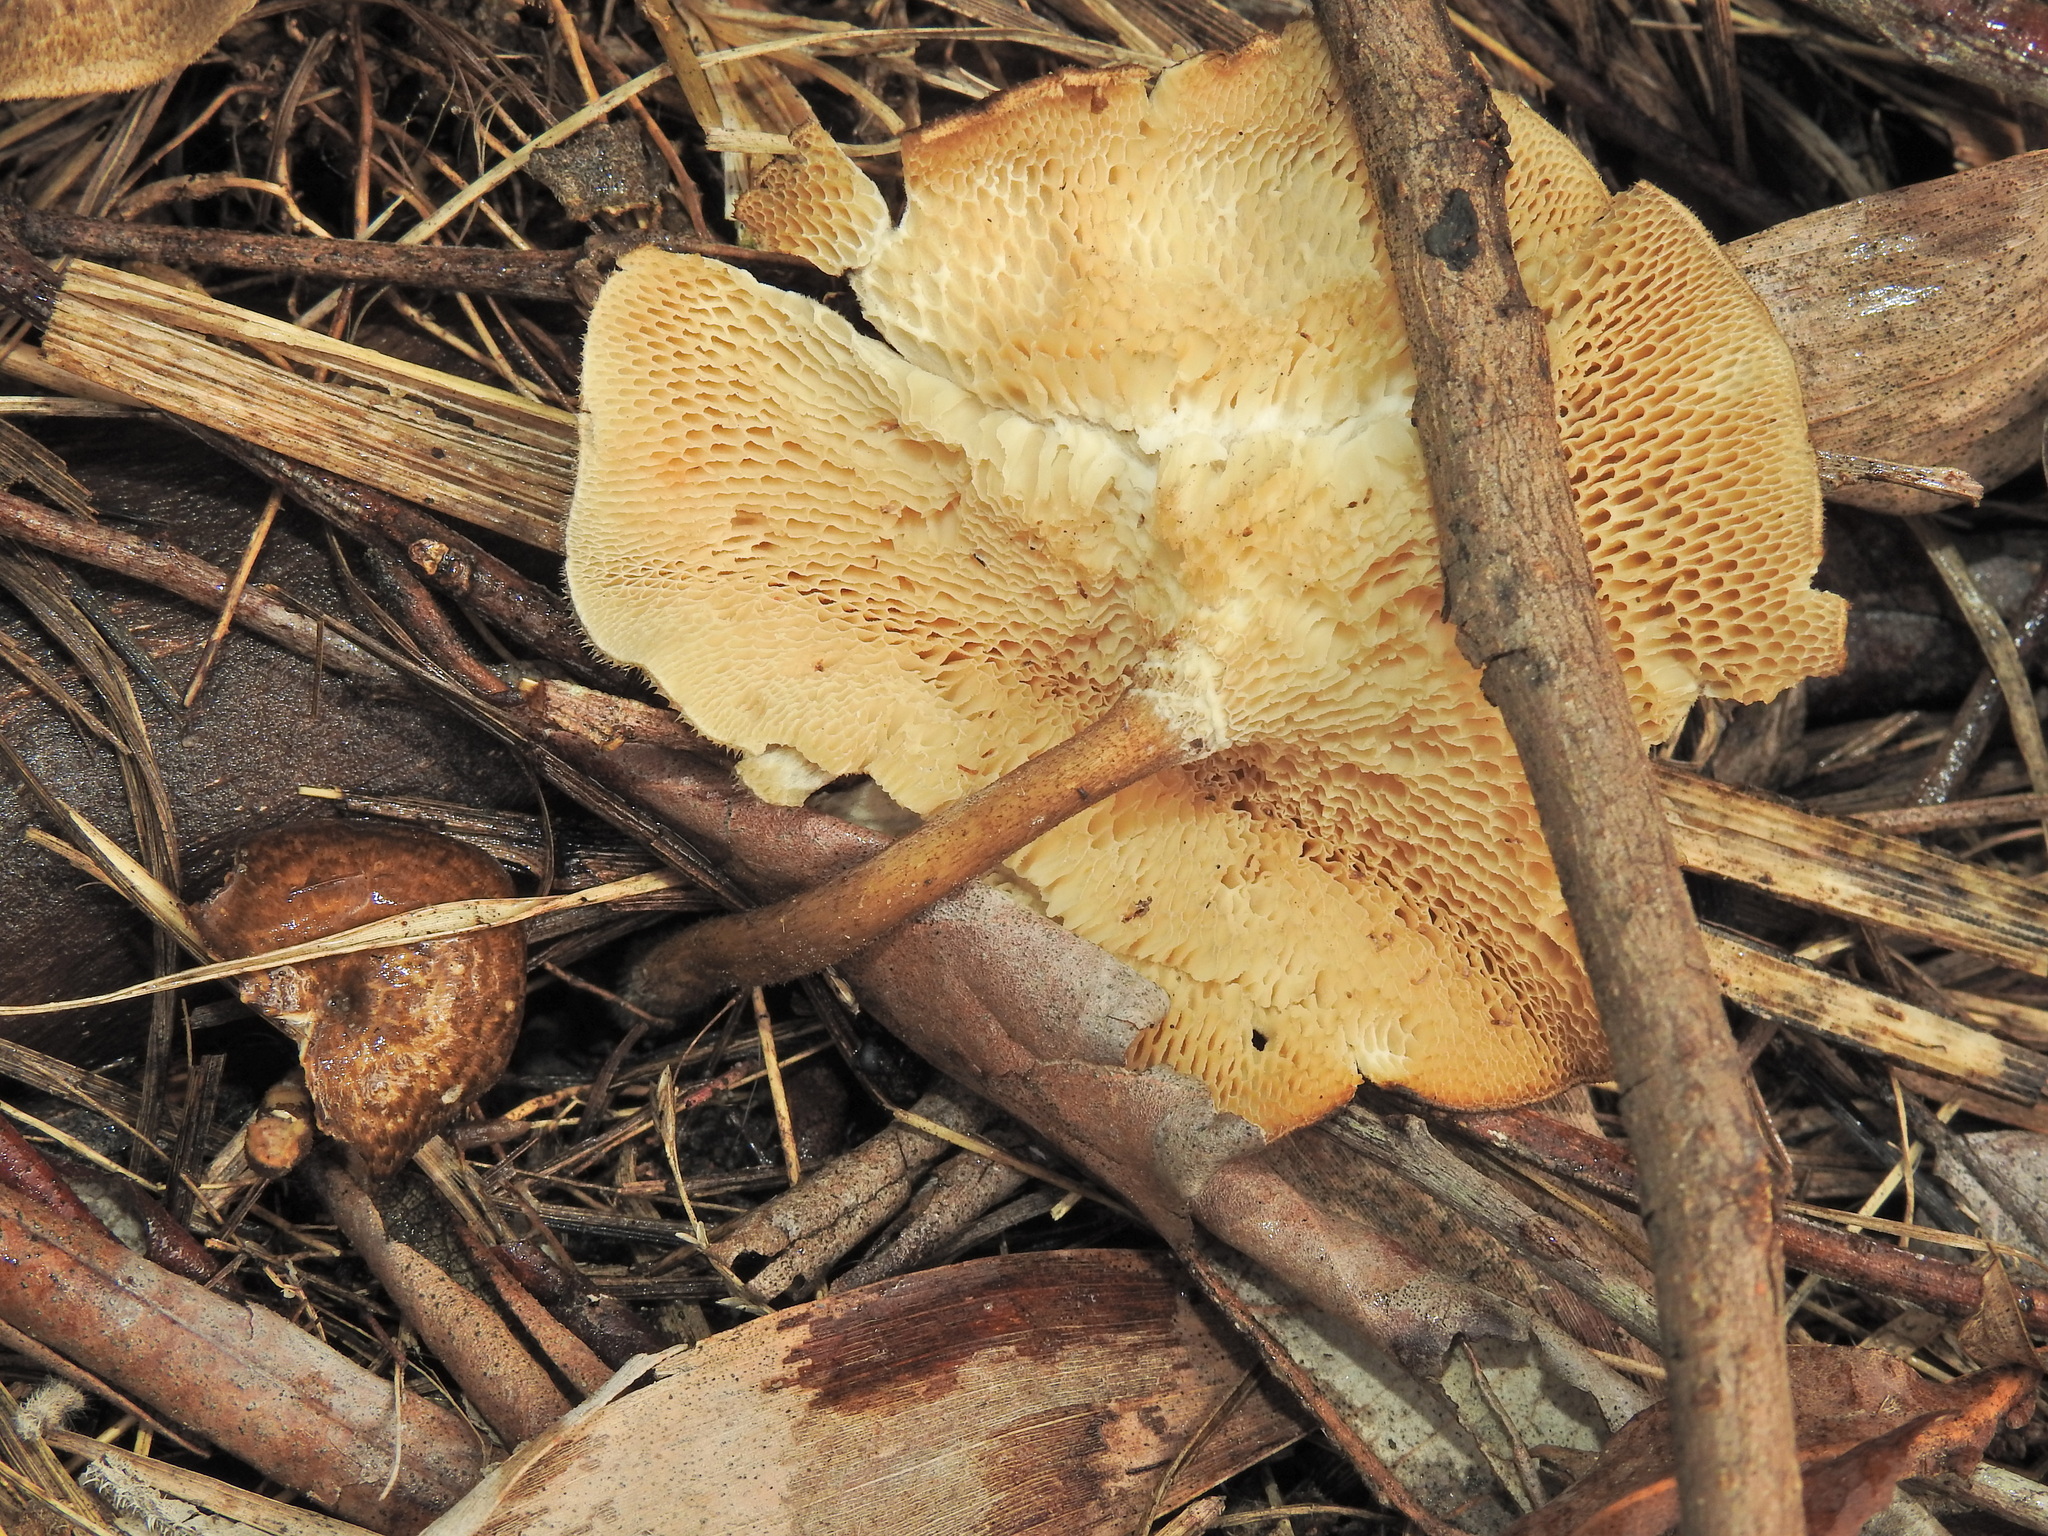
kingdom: Fungi
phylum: Basidiomycota
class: Agaricomycetes
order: Polyporales
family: Polyporaceae
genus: Lentinus
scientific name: Lentinus arcularius
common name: Spring polypore
